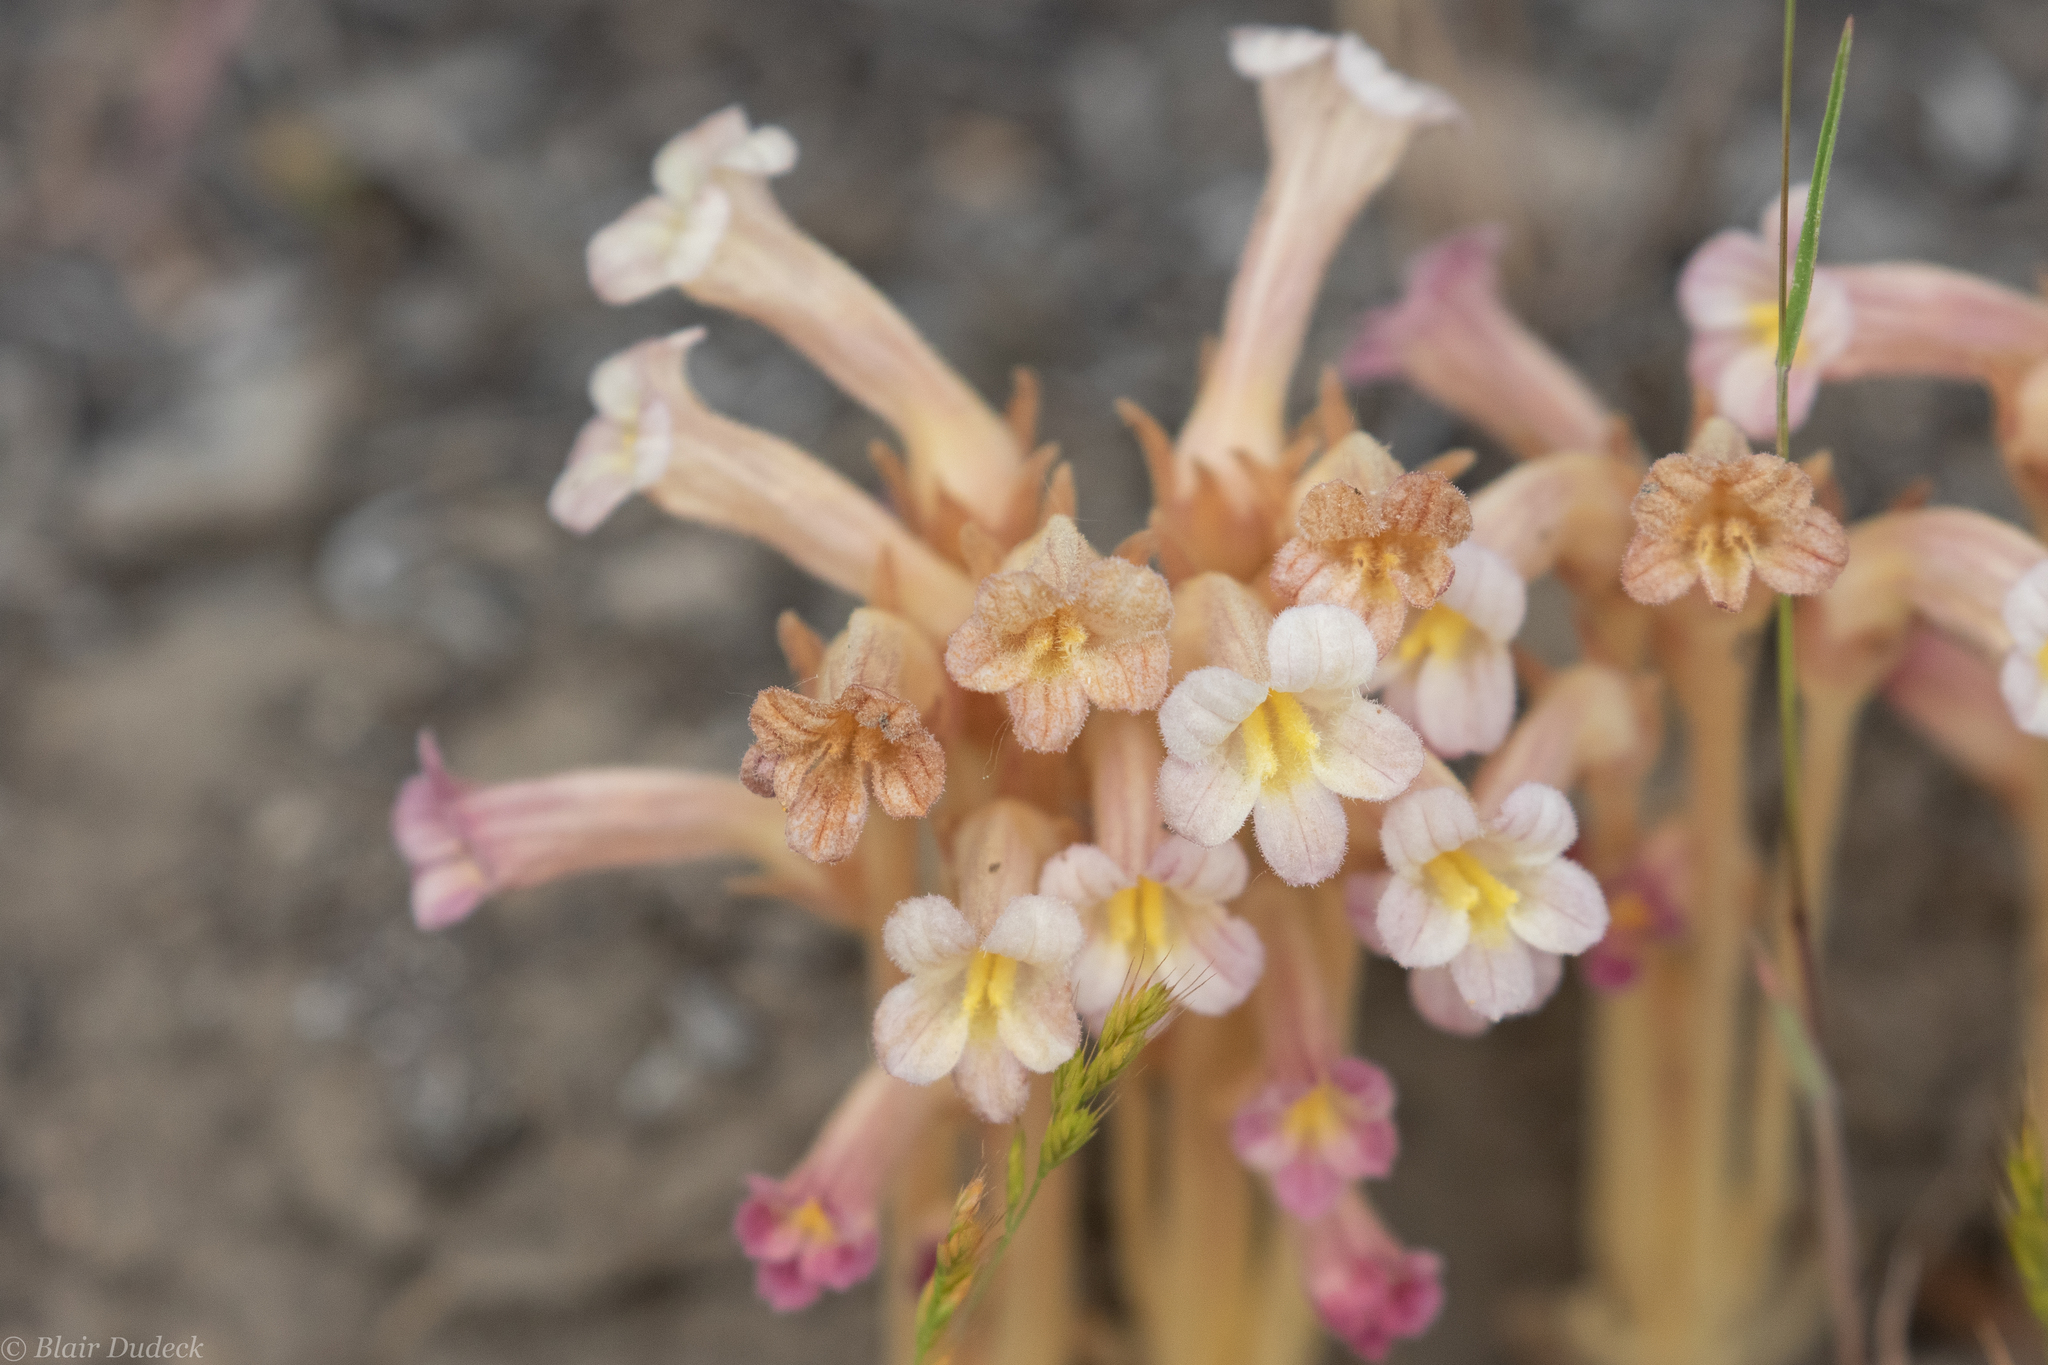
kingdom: Plantae
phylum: Tracheophyta
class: Magnoliopsida
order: Lamiales
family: Orobanchaceae
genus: Aphyllon
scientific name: Aphyllon fasciculatum
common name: Clustered broomrape
